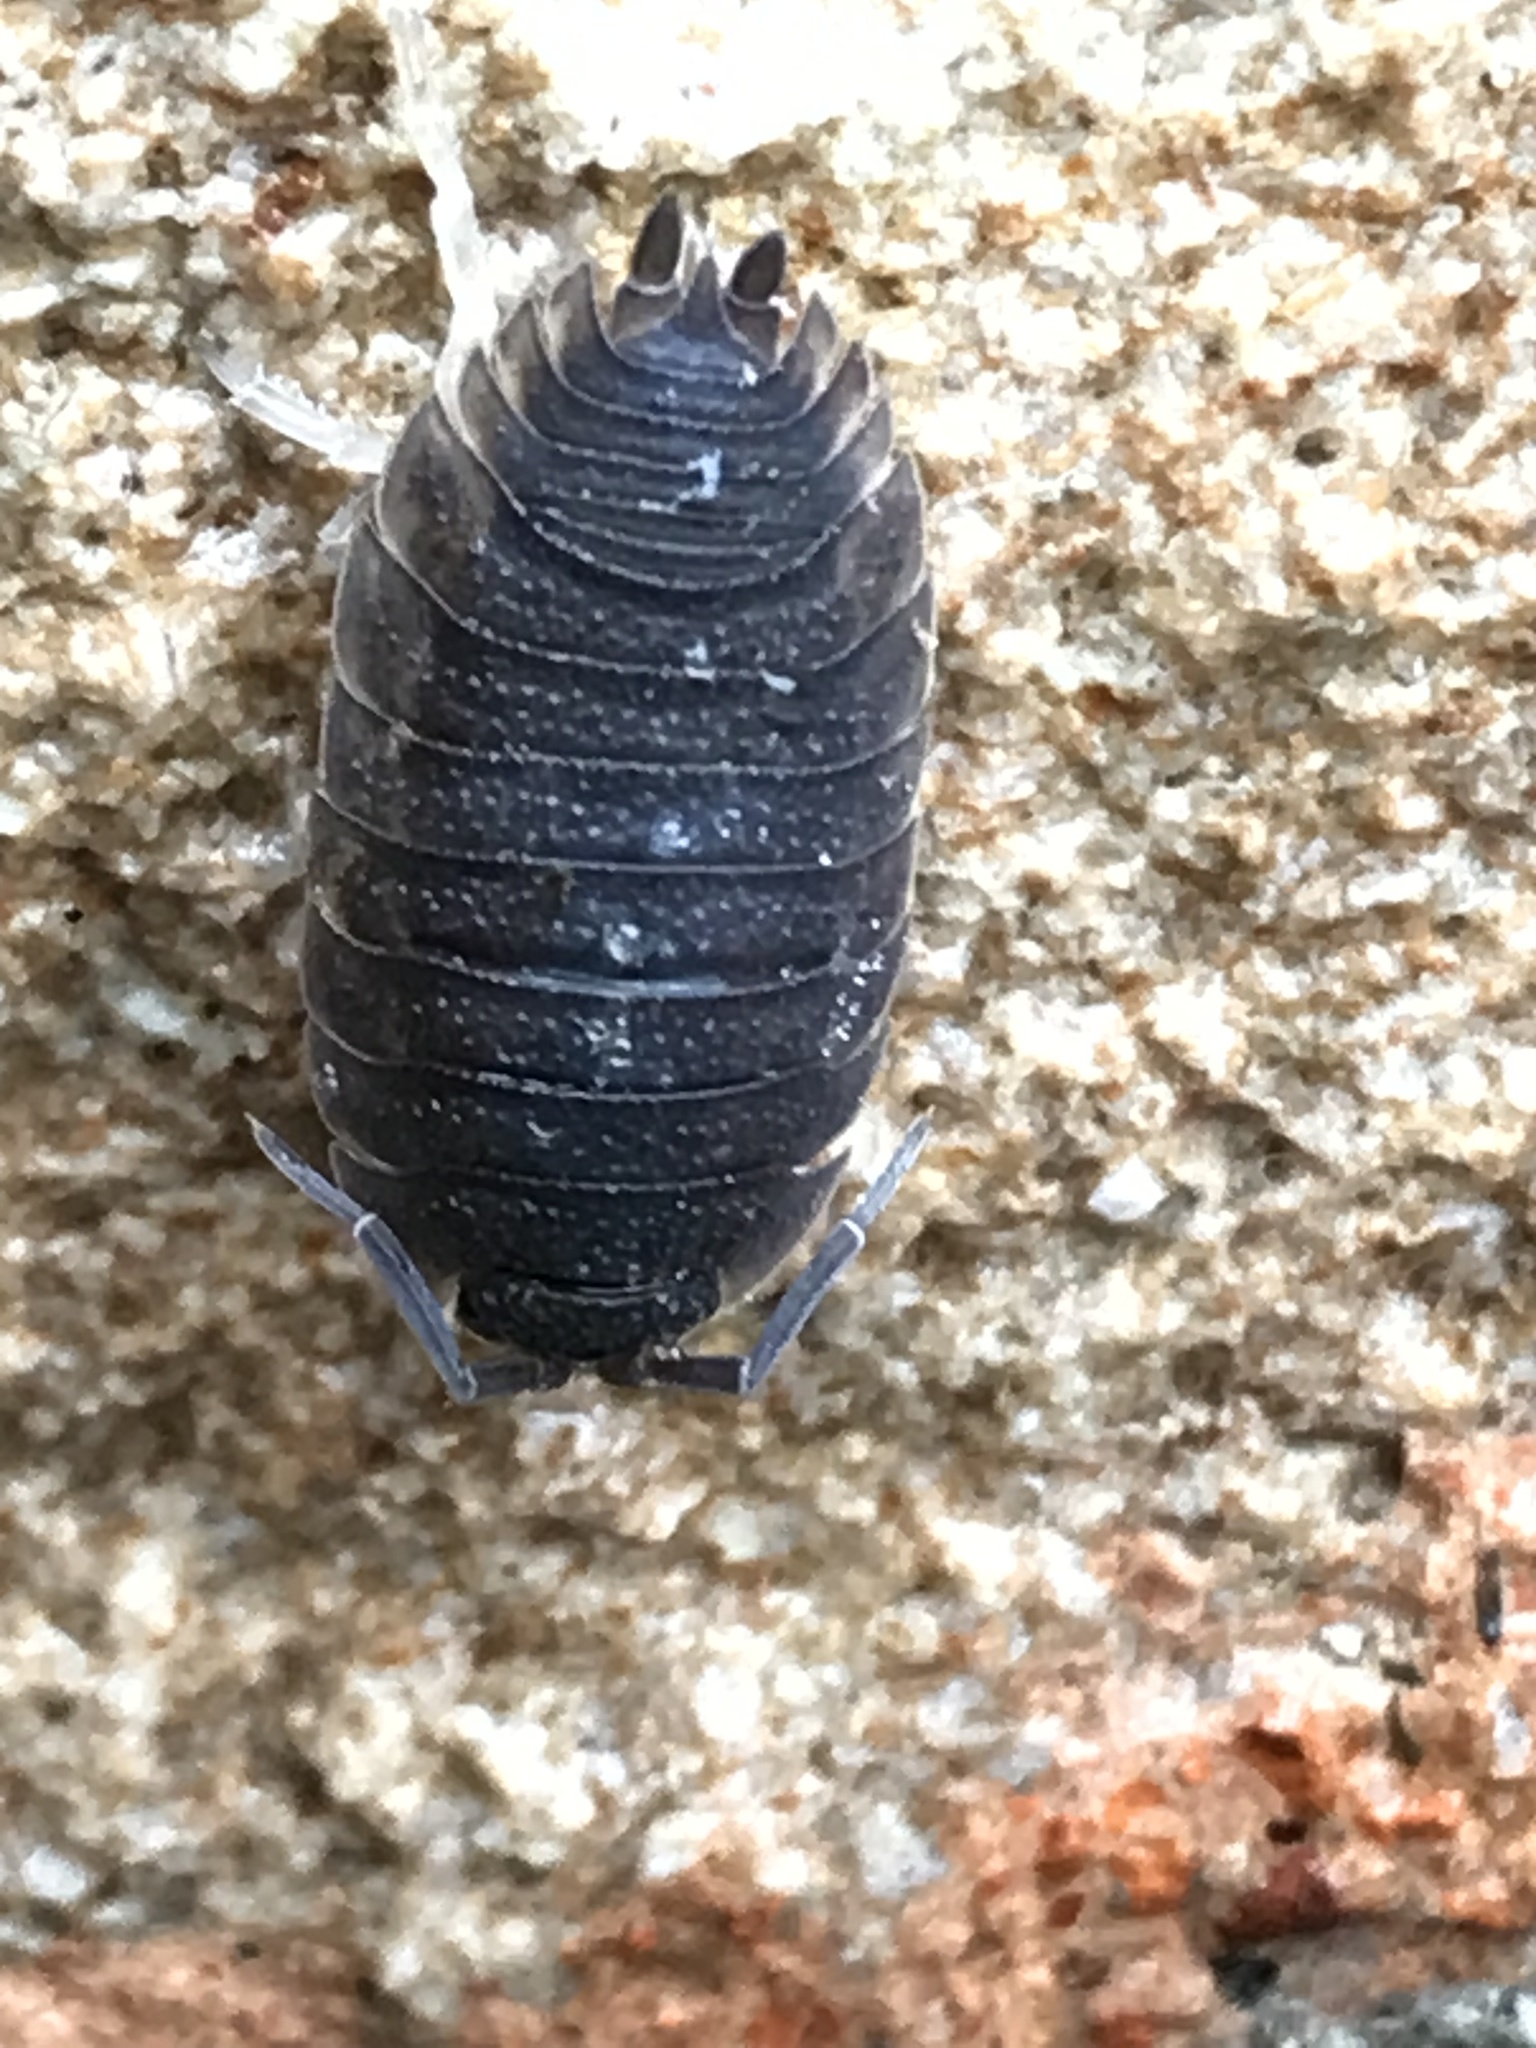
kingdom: Animalia
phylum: Arthropoda
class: Malacostraca
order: Isopoda
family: Porcellionidae
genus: Porcellio
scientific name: Porcellio scaber
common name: Common rough woodlouse
